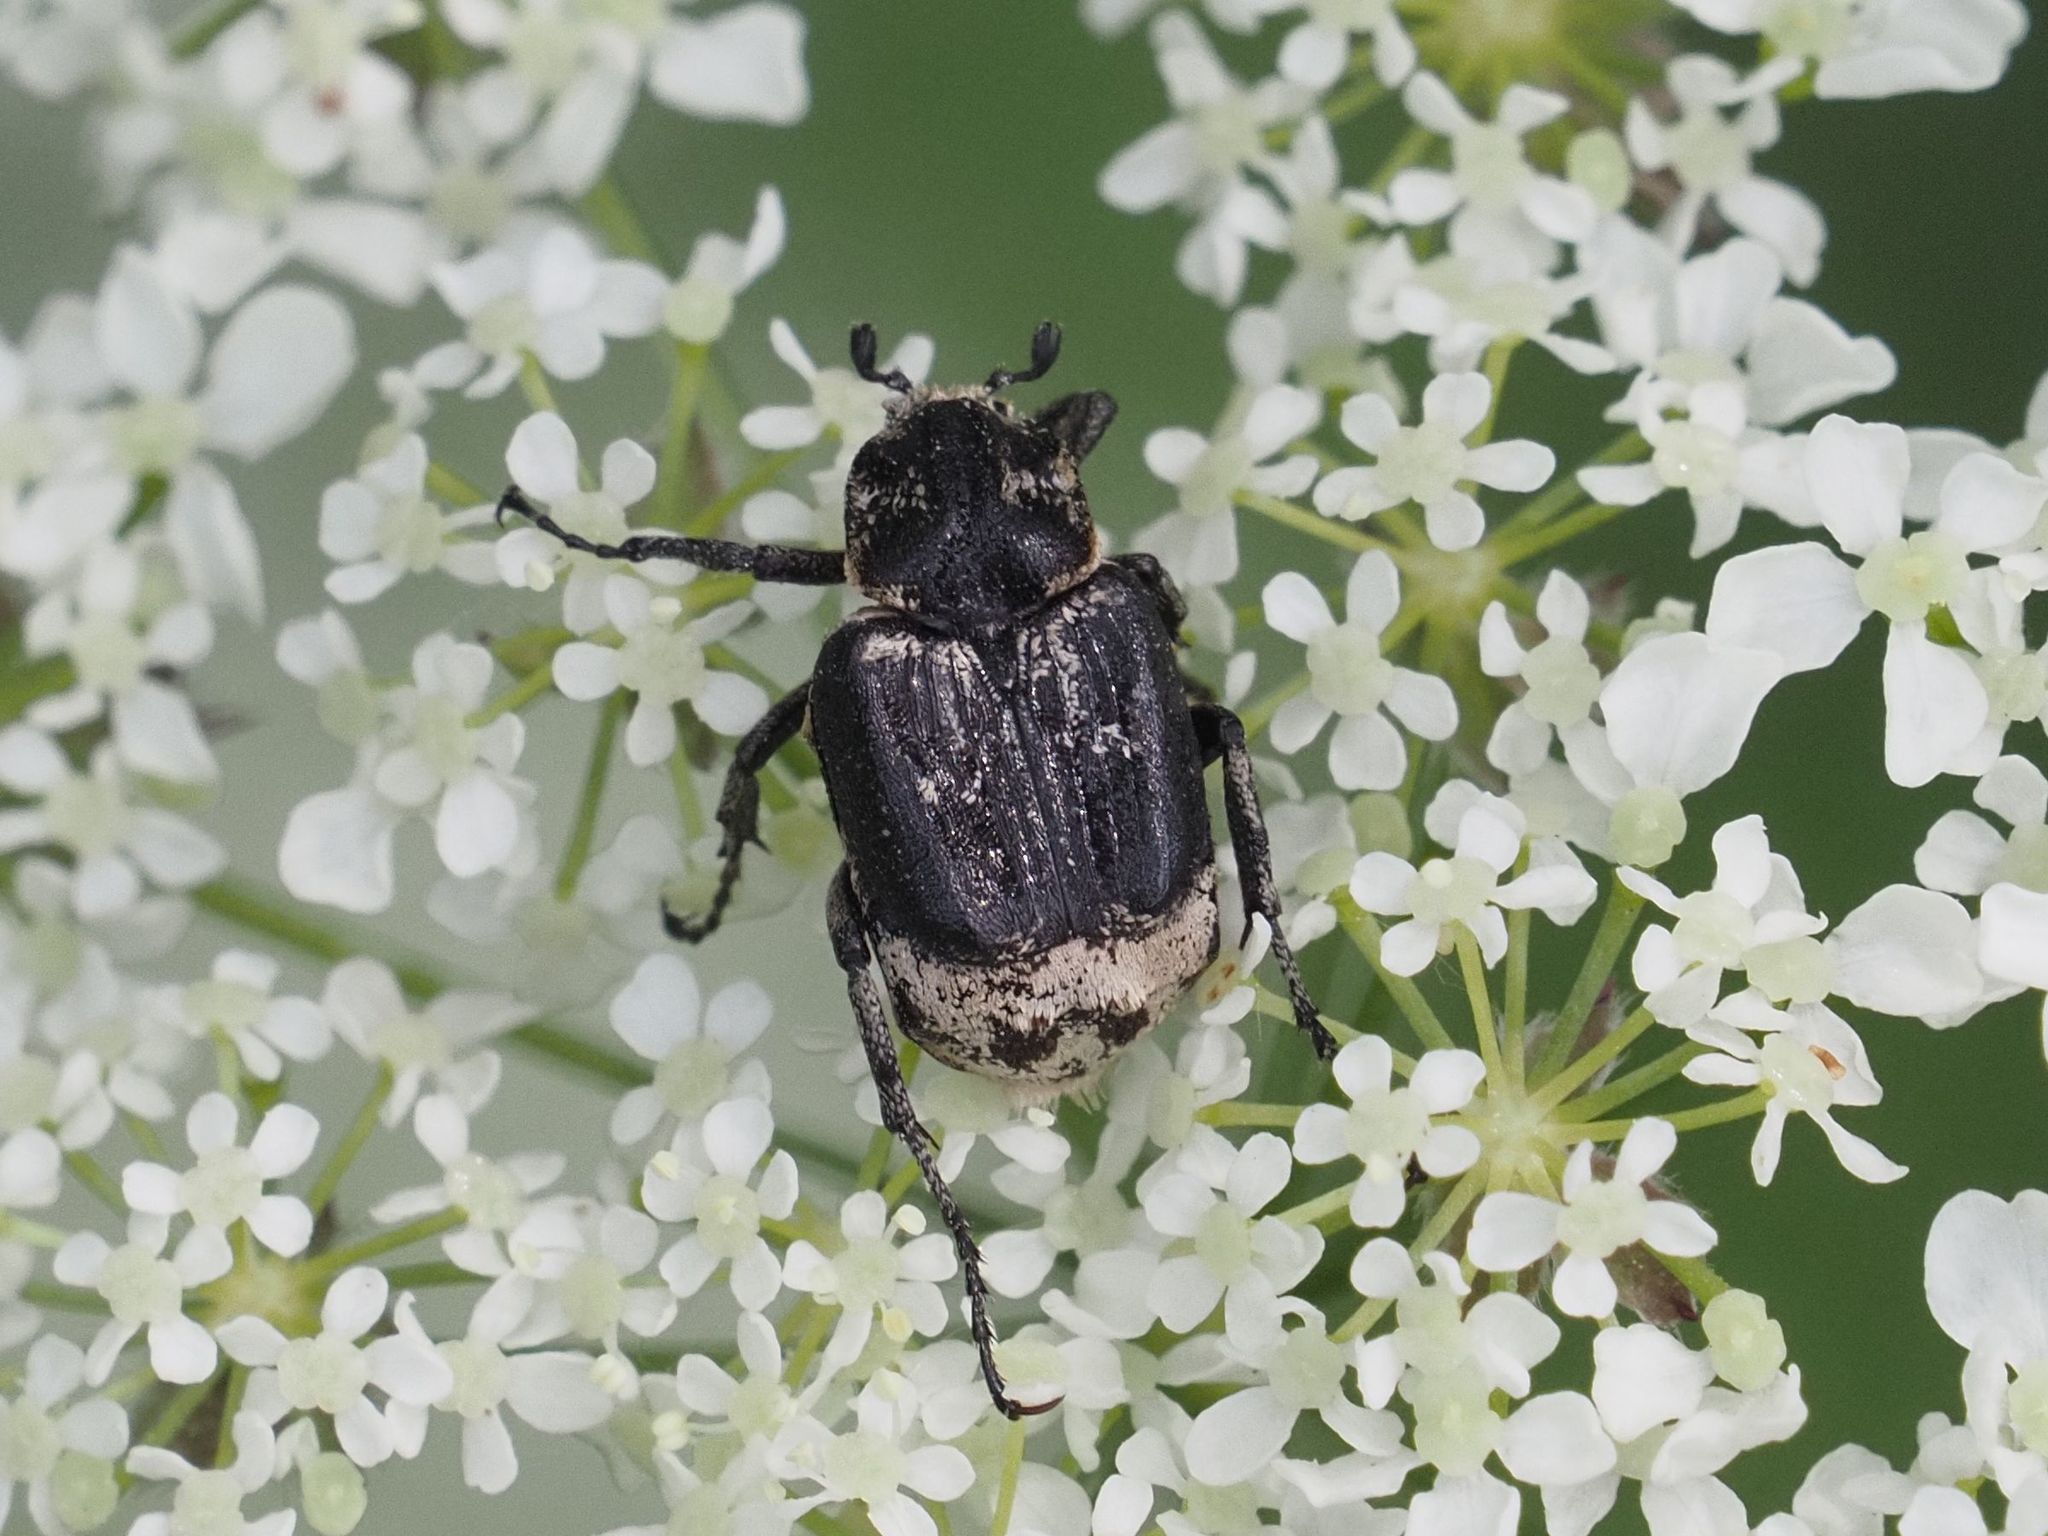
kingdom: Animalia
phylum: Arthropoda
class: Insecta
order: Coleoptera
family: Scarabaeidae
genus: Valgus
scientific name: Valgus hemipterus
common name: Bug flower chafer
